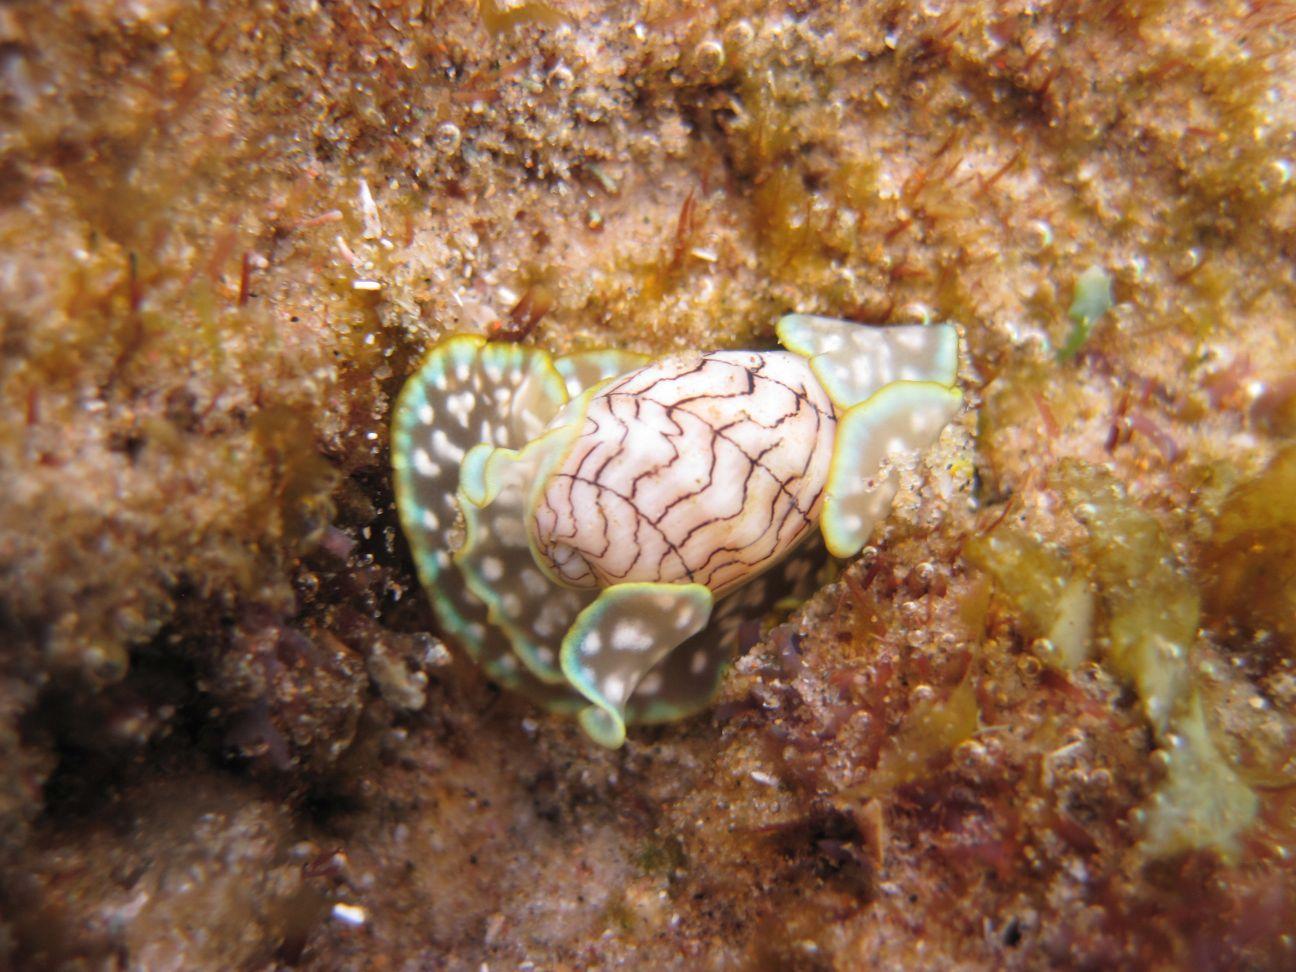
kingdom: Animalia
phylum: Mollusca
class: Gastropoda
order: Cephalaspidea
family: Aplustridae
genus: Micromelo
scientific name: Micromelo scriptus
